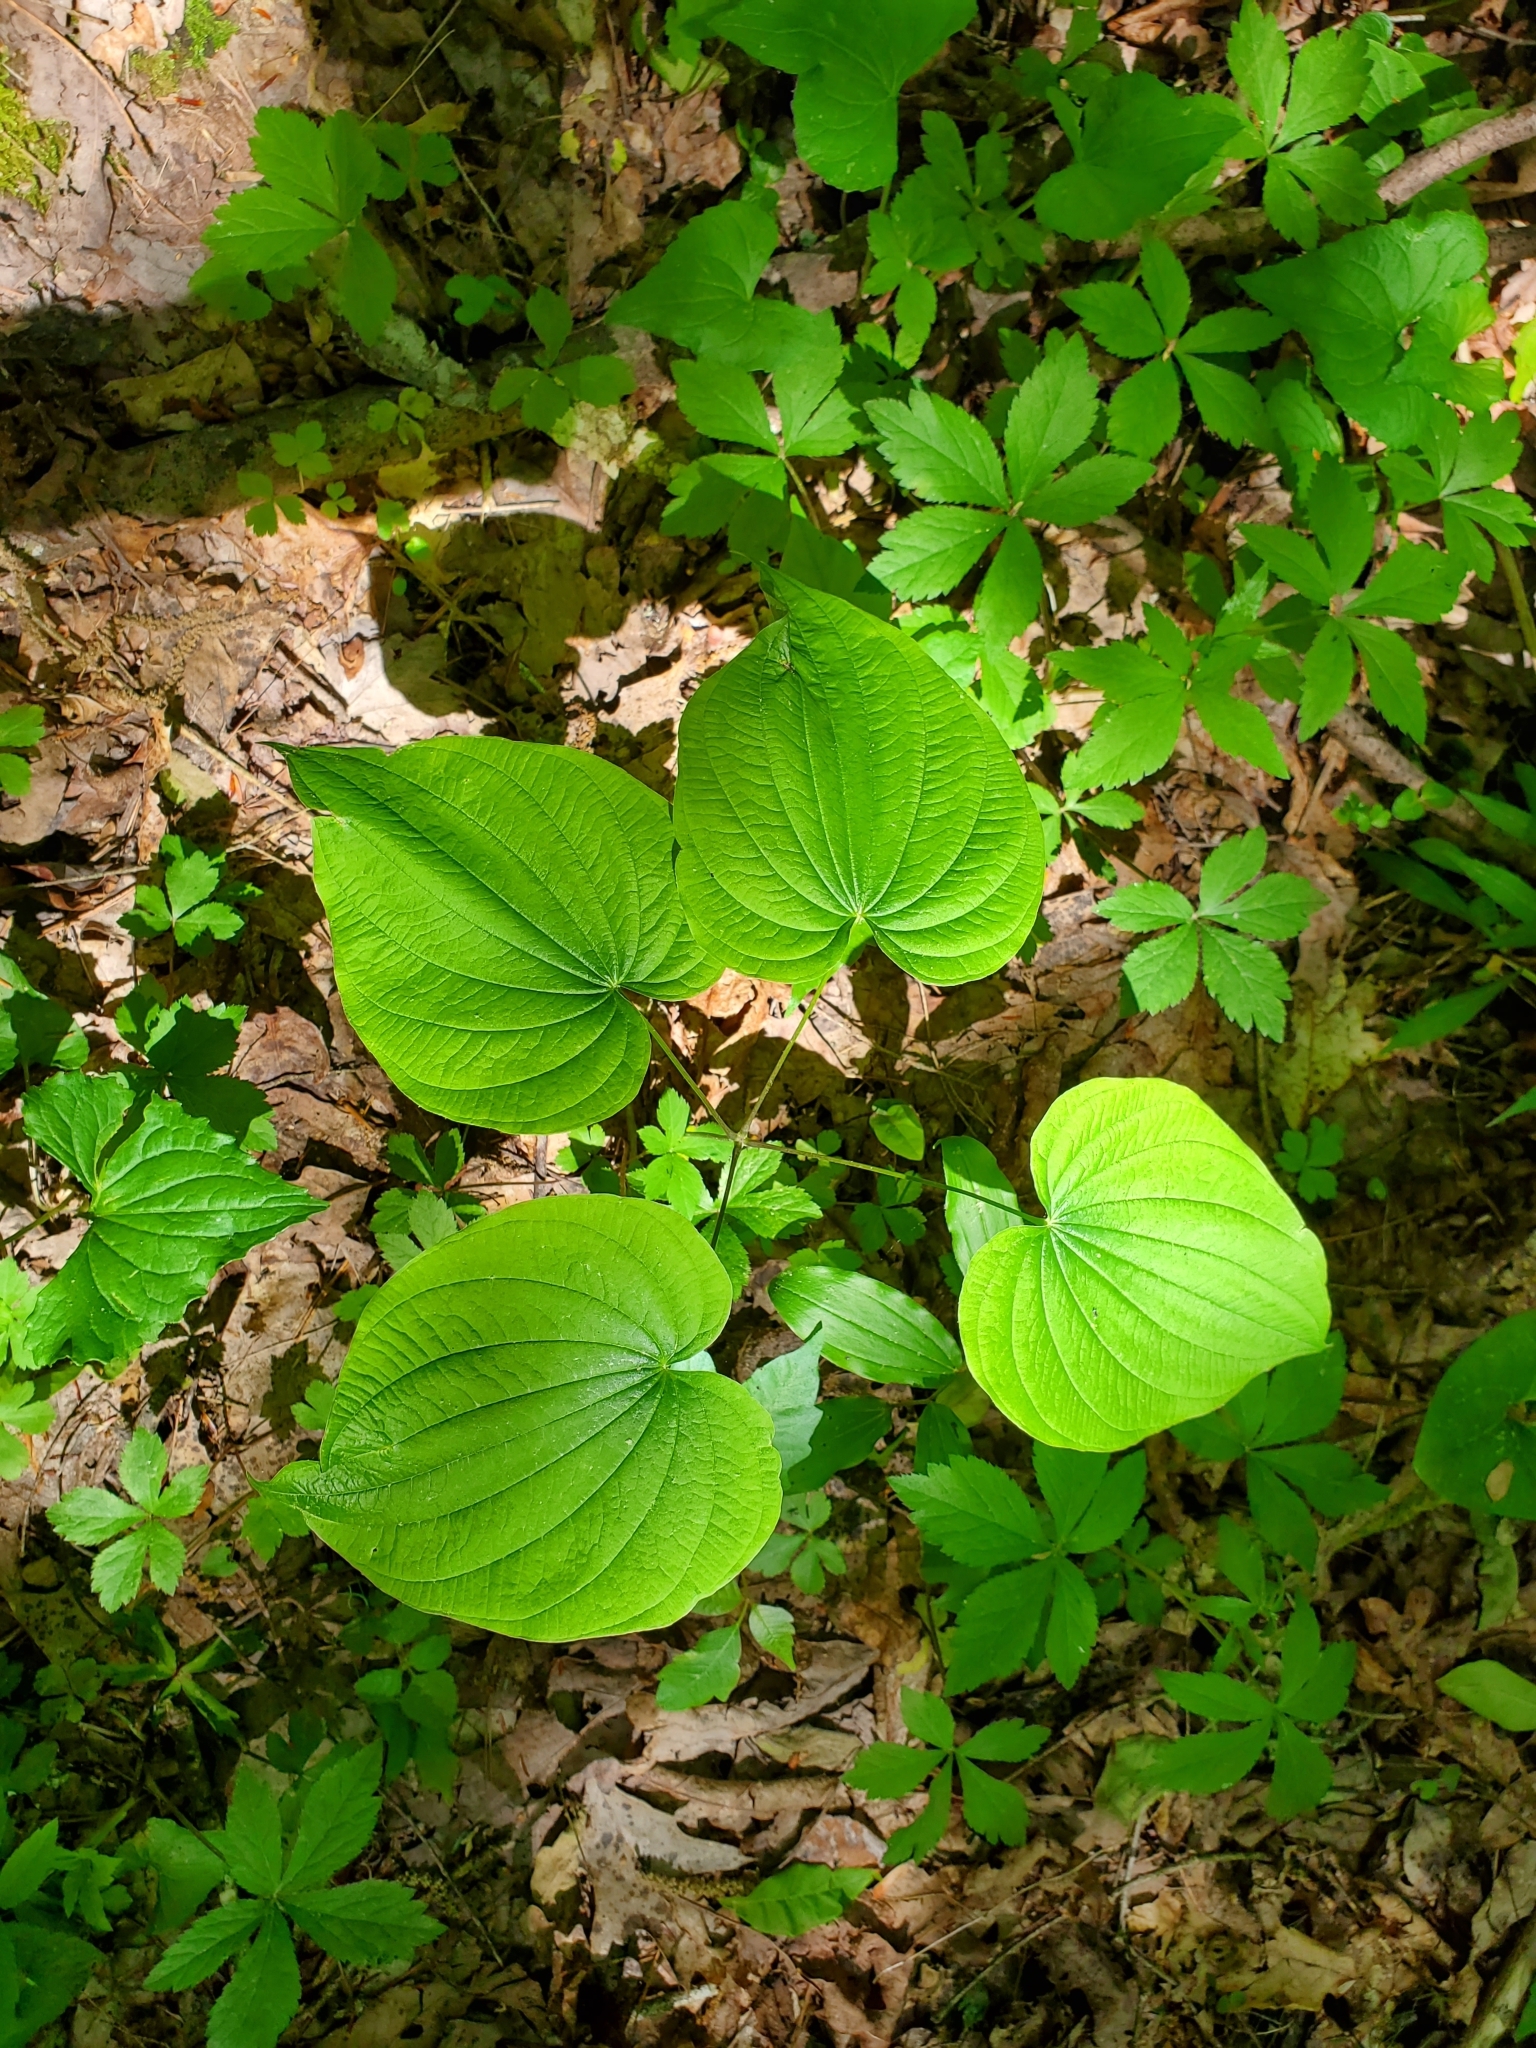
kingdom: Plantae
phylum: Tracheophyta
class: Liliopsida
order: Dioscoreales
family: Dioscoreaceae
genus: Dioscorea
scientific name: Dioscorea villosa
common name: Wild yam
